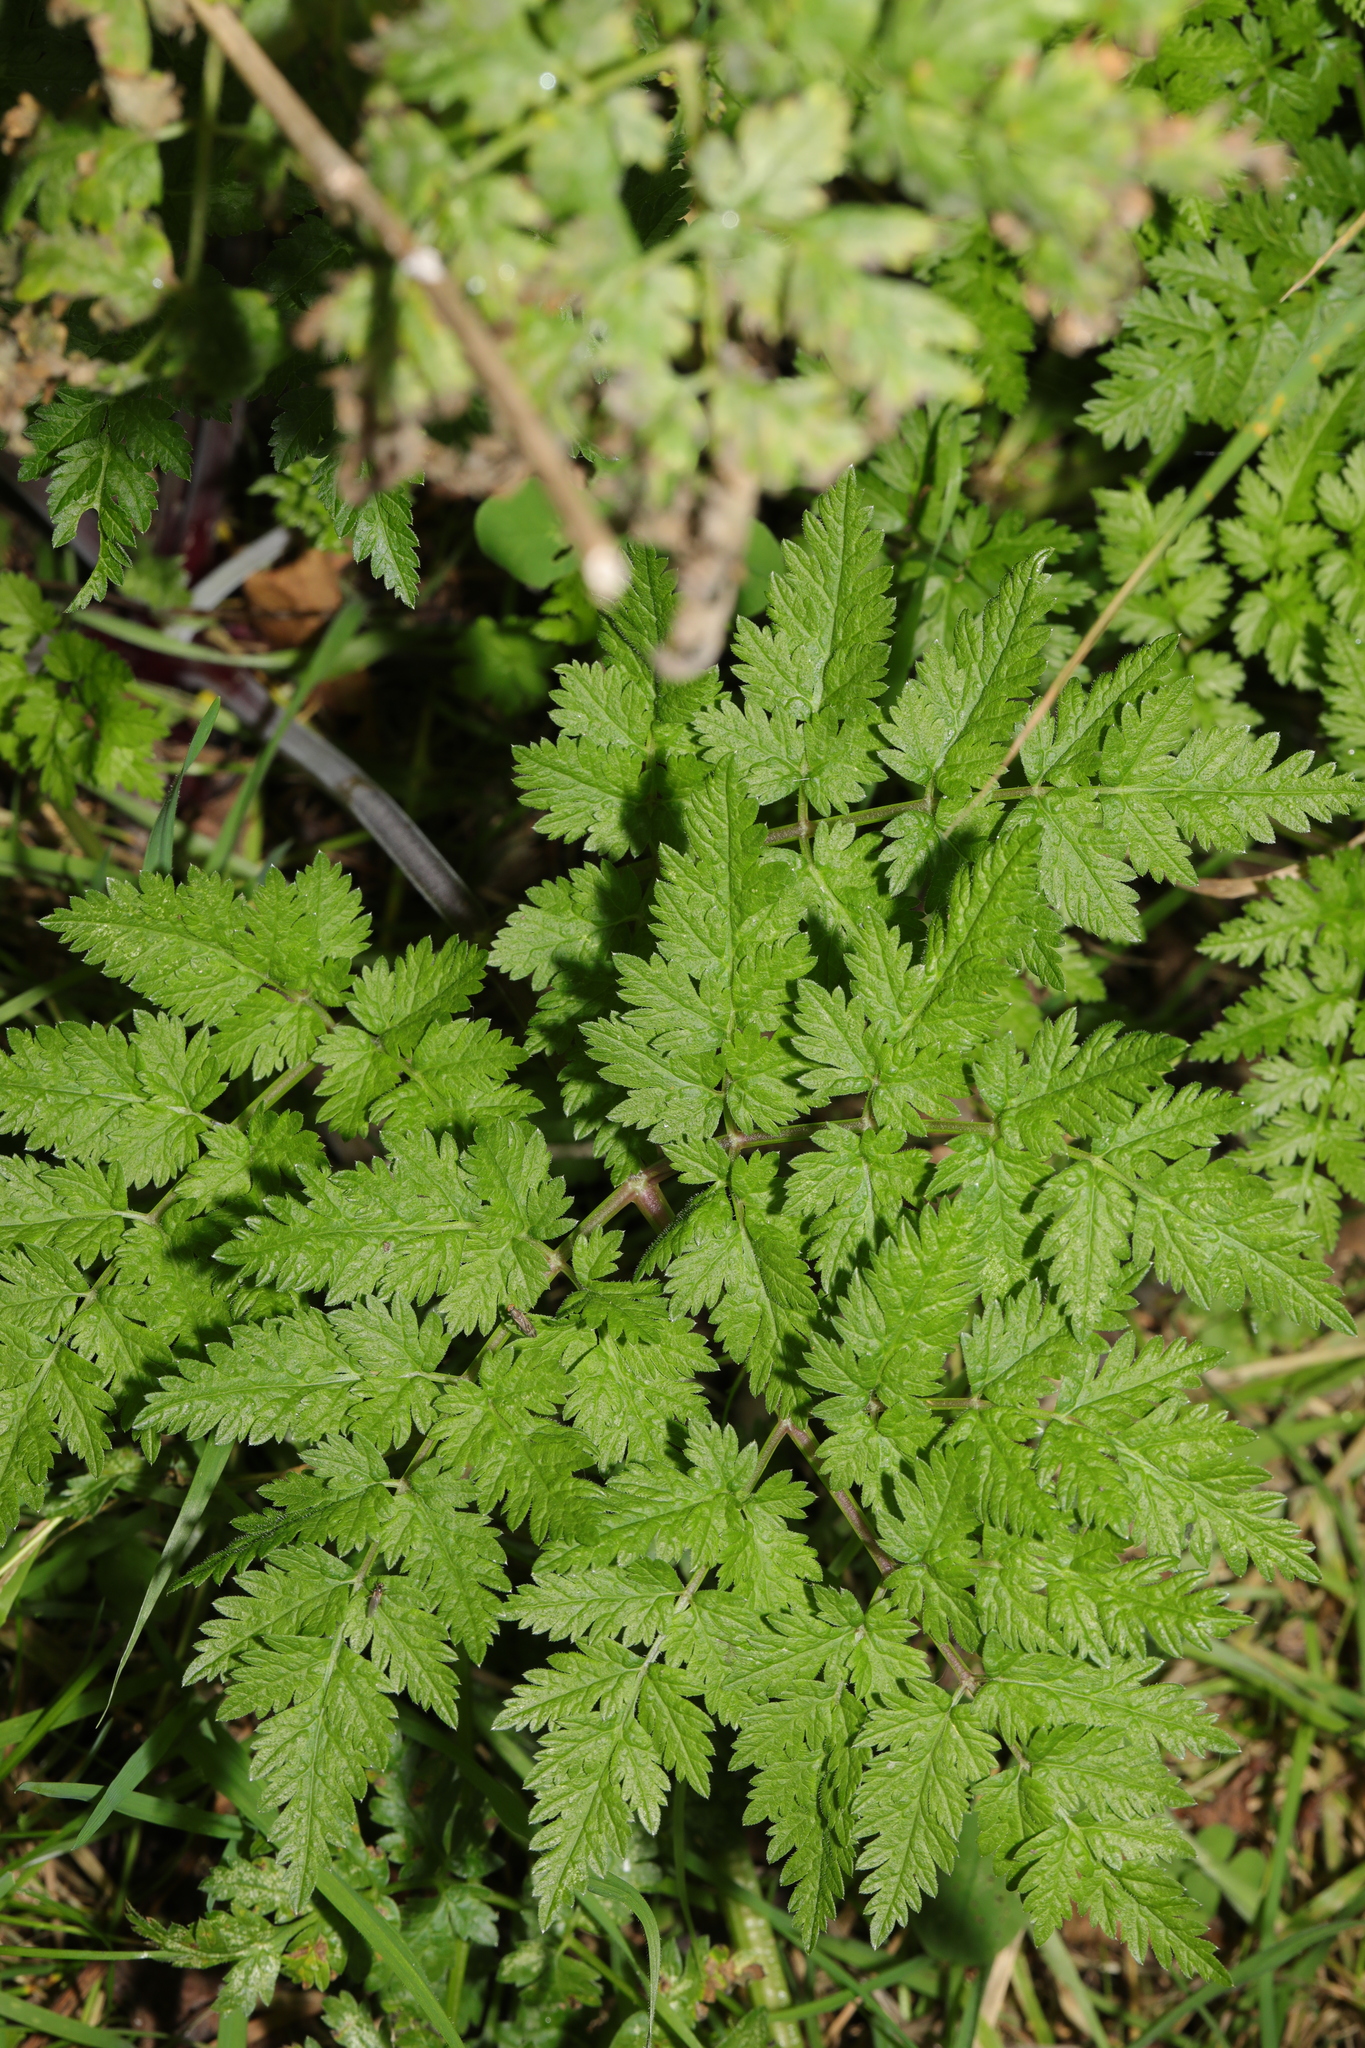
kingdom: Plantae
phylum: Tracheophyta
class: Magnoliopsida
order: Apiales
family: Apiaceae
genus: Anthriscus
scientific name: Anthriscus sylvestris
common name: Cow parsley
